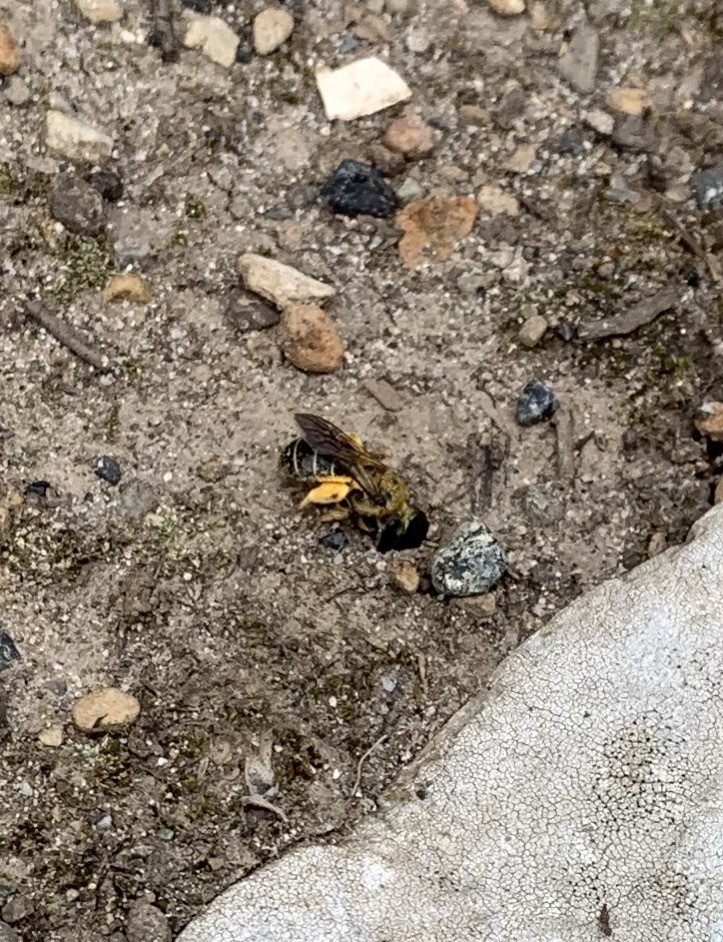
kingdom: Animalia
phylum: Arthropoda
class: Insecta
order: Hymenoptera
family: Halictidae
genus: Halictus
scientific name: Halictus rubicundus
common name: Orange-legged furrow bee
